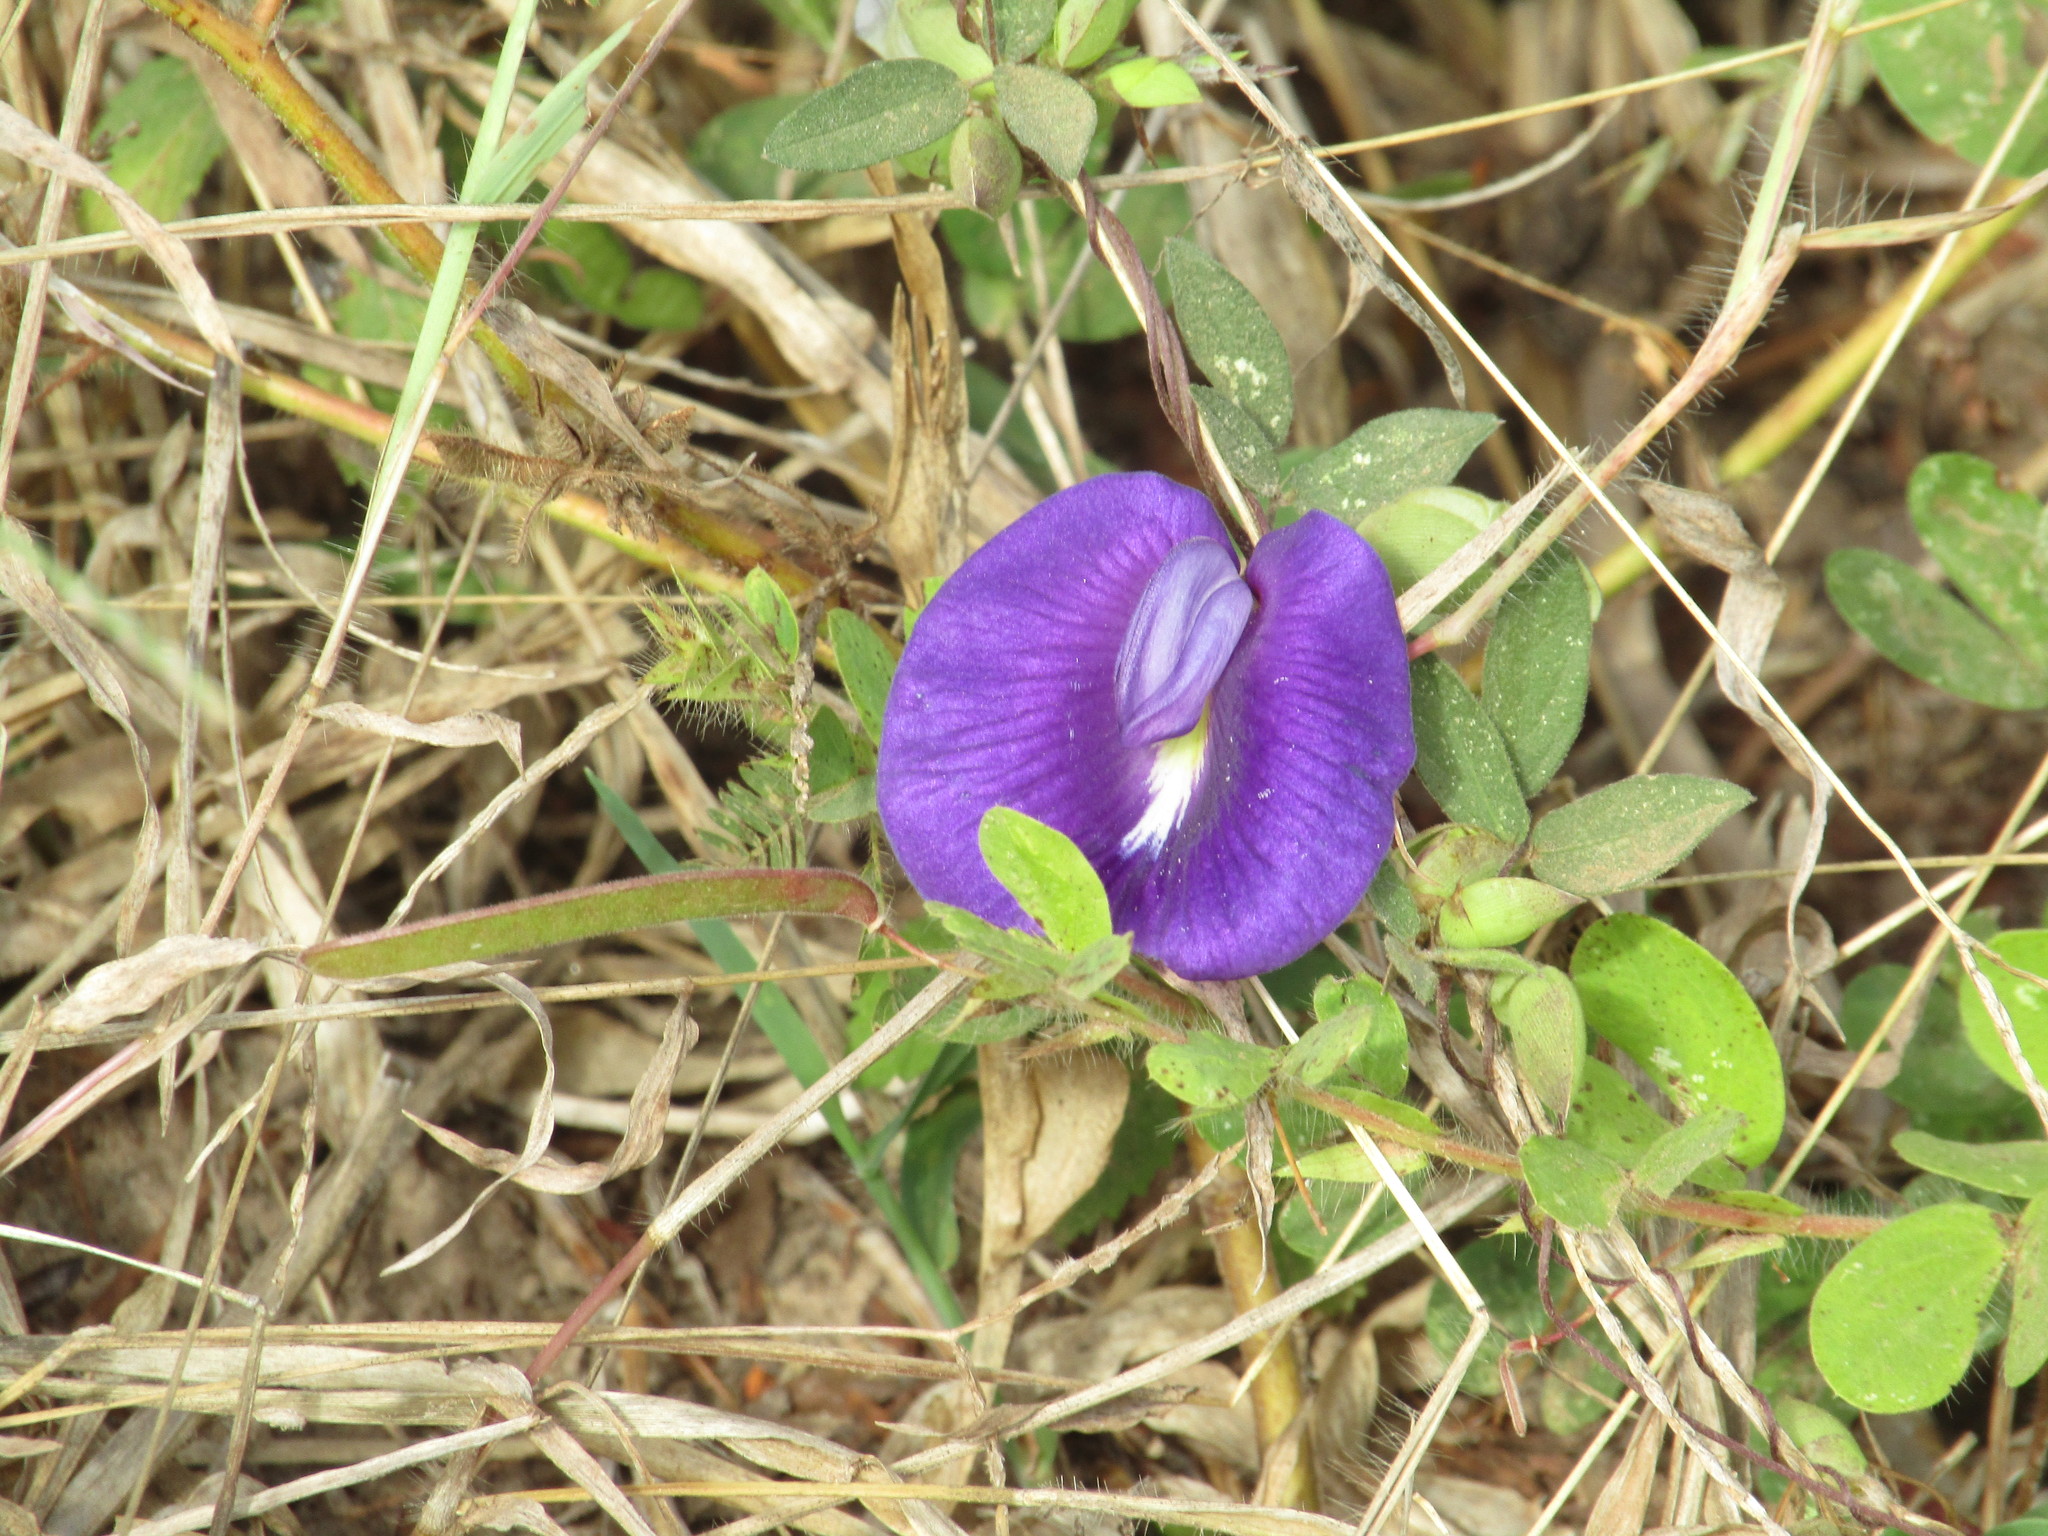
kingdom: Plantae
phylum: Tracheophyta
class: Magnoliopsida
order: Fabales
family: Fabaceae
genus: Centrosema
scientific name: Centrosema brasilianum
